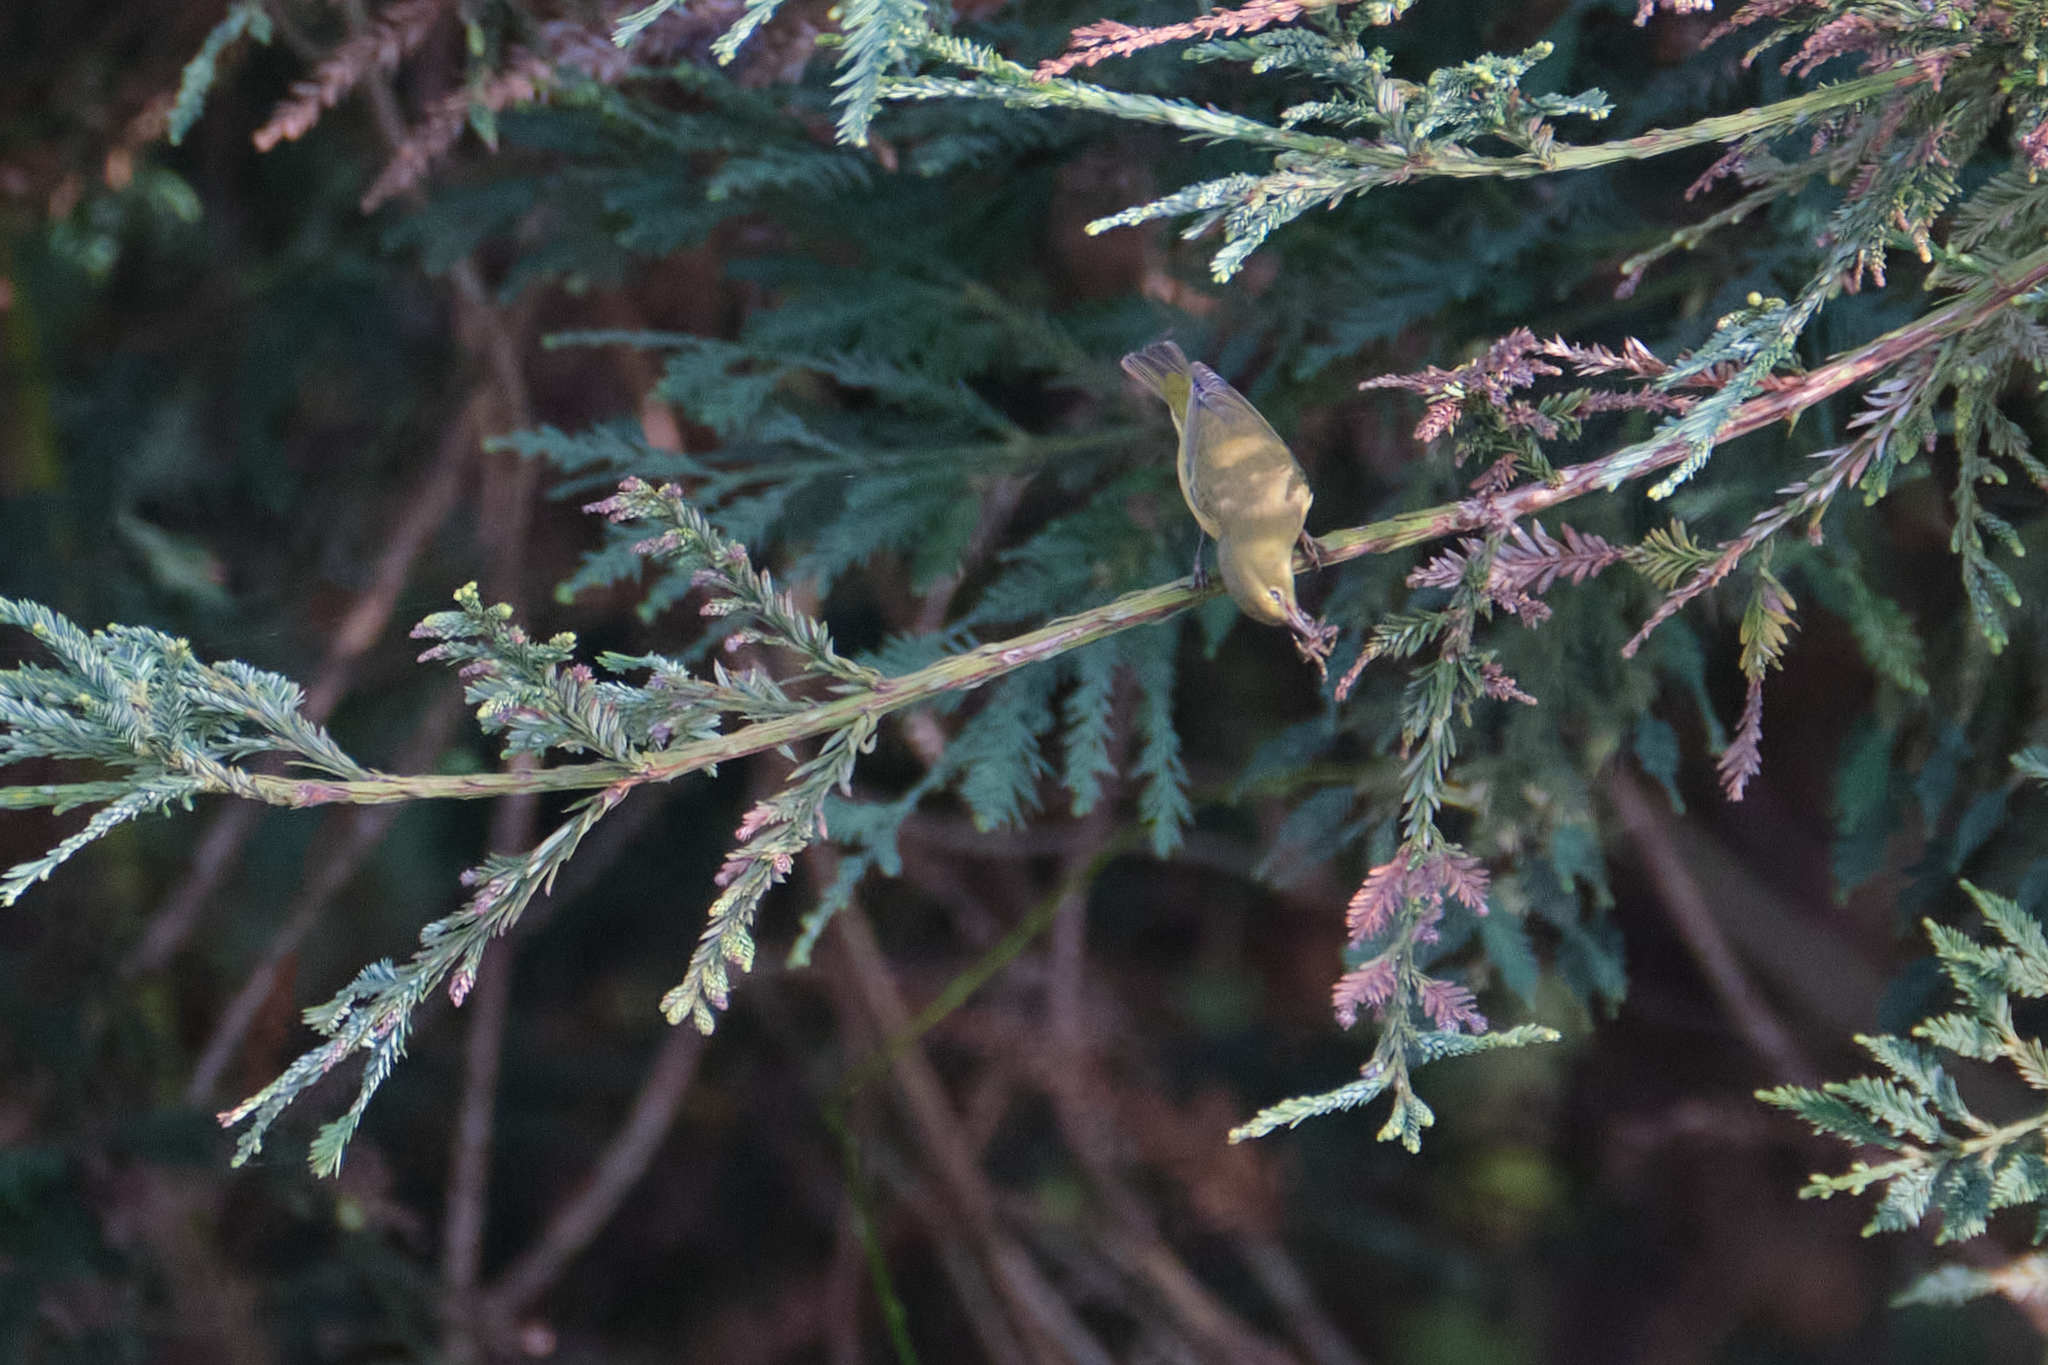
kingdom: Animalia
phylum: Chordata
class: Aves
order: Passeriformes
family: Parulidae
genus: Leiothlypis
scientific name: Leiothlypis celata
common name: Orange-crowned warbler
